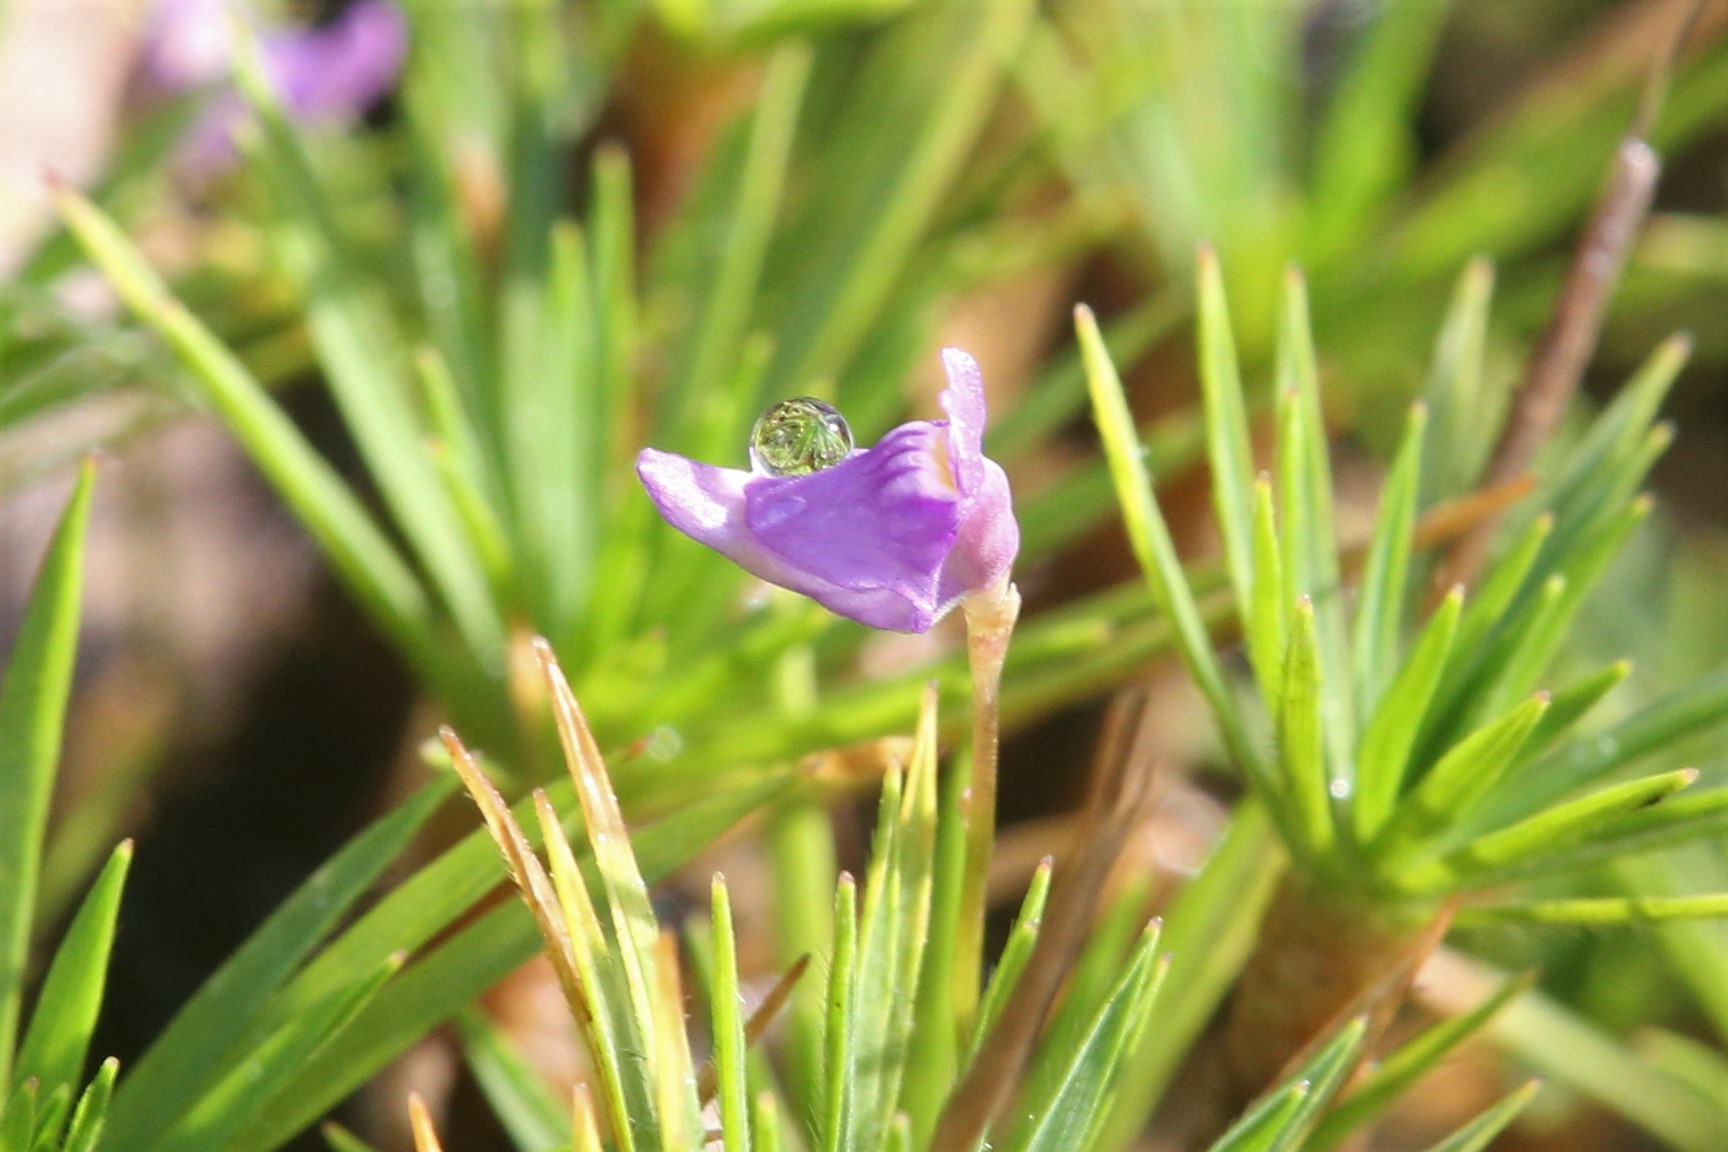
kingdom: Plantae
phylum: Tracheophyta
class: Magnoliopsida
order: Lamiales
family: Lentibulariaceae
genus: Utricularia
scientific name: Utricularia caerulea
